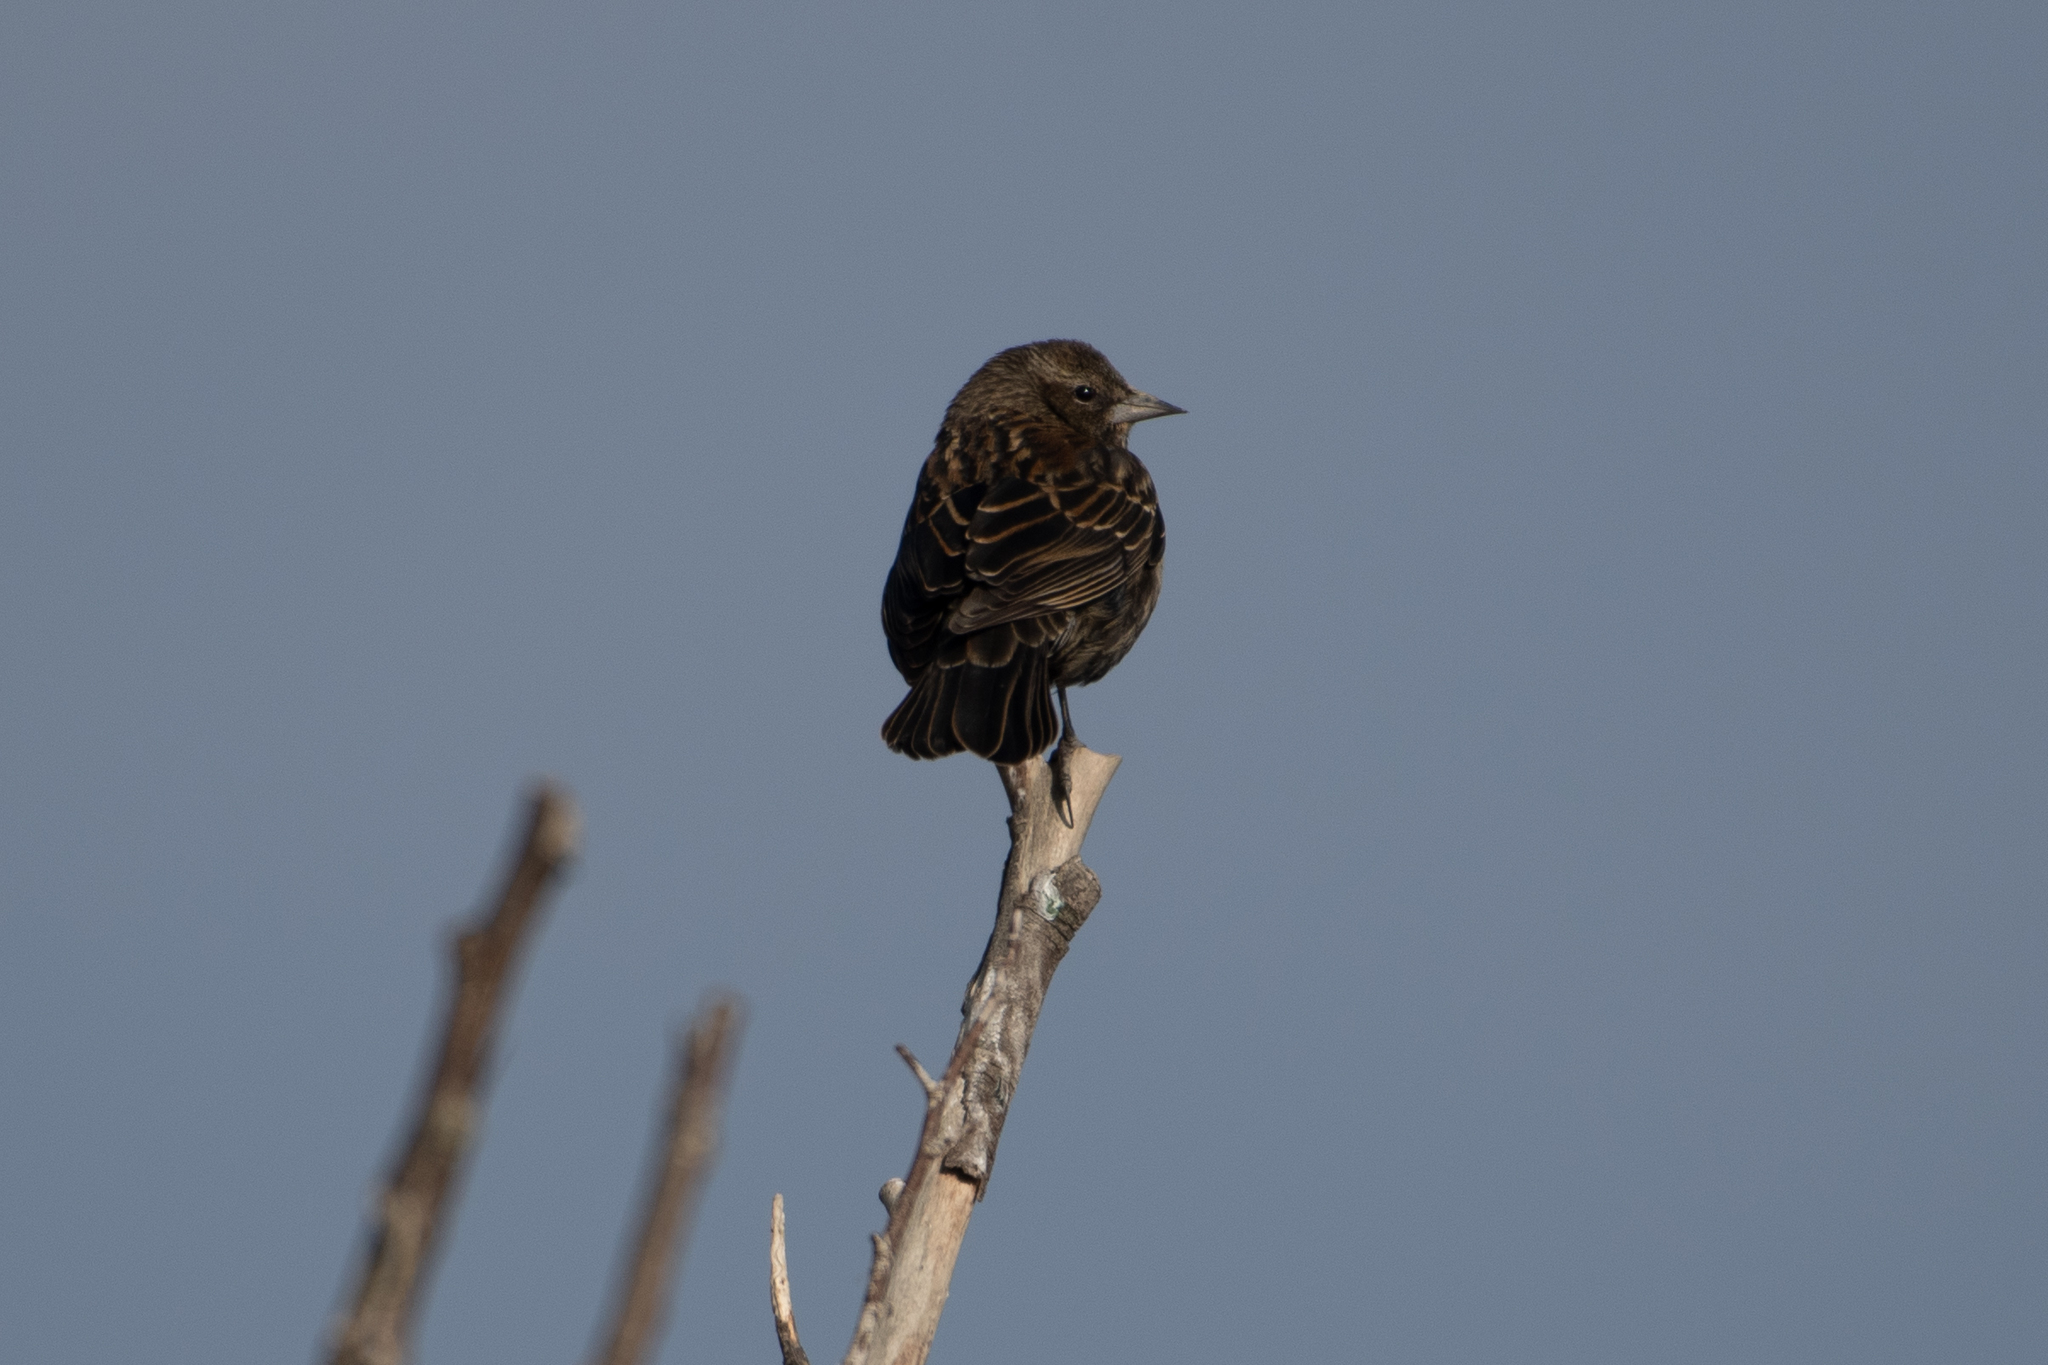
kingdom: Animalia
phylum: Chordata
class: Aves
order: Passeriformes
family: Icteridae
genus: Agelaius
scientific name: Agelaius phoeniceus
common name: Red-winged blackbird
